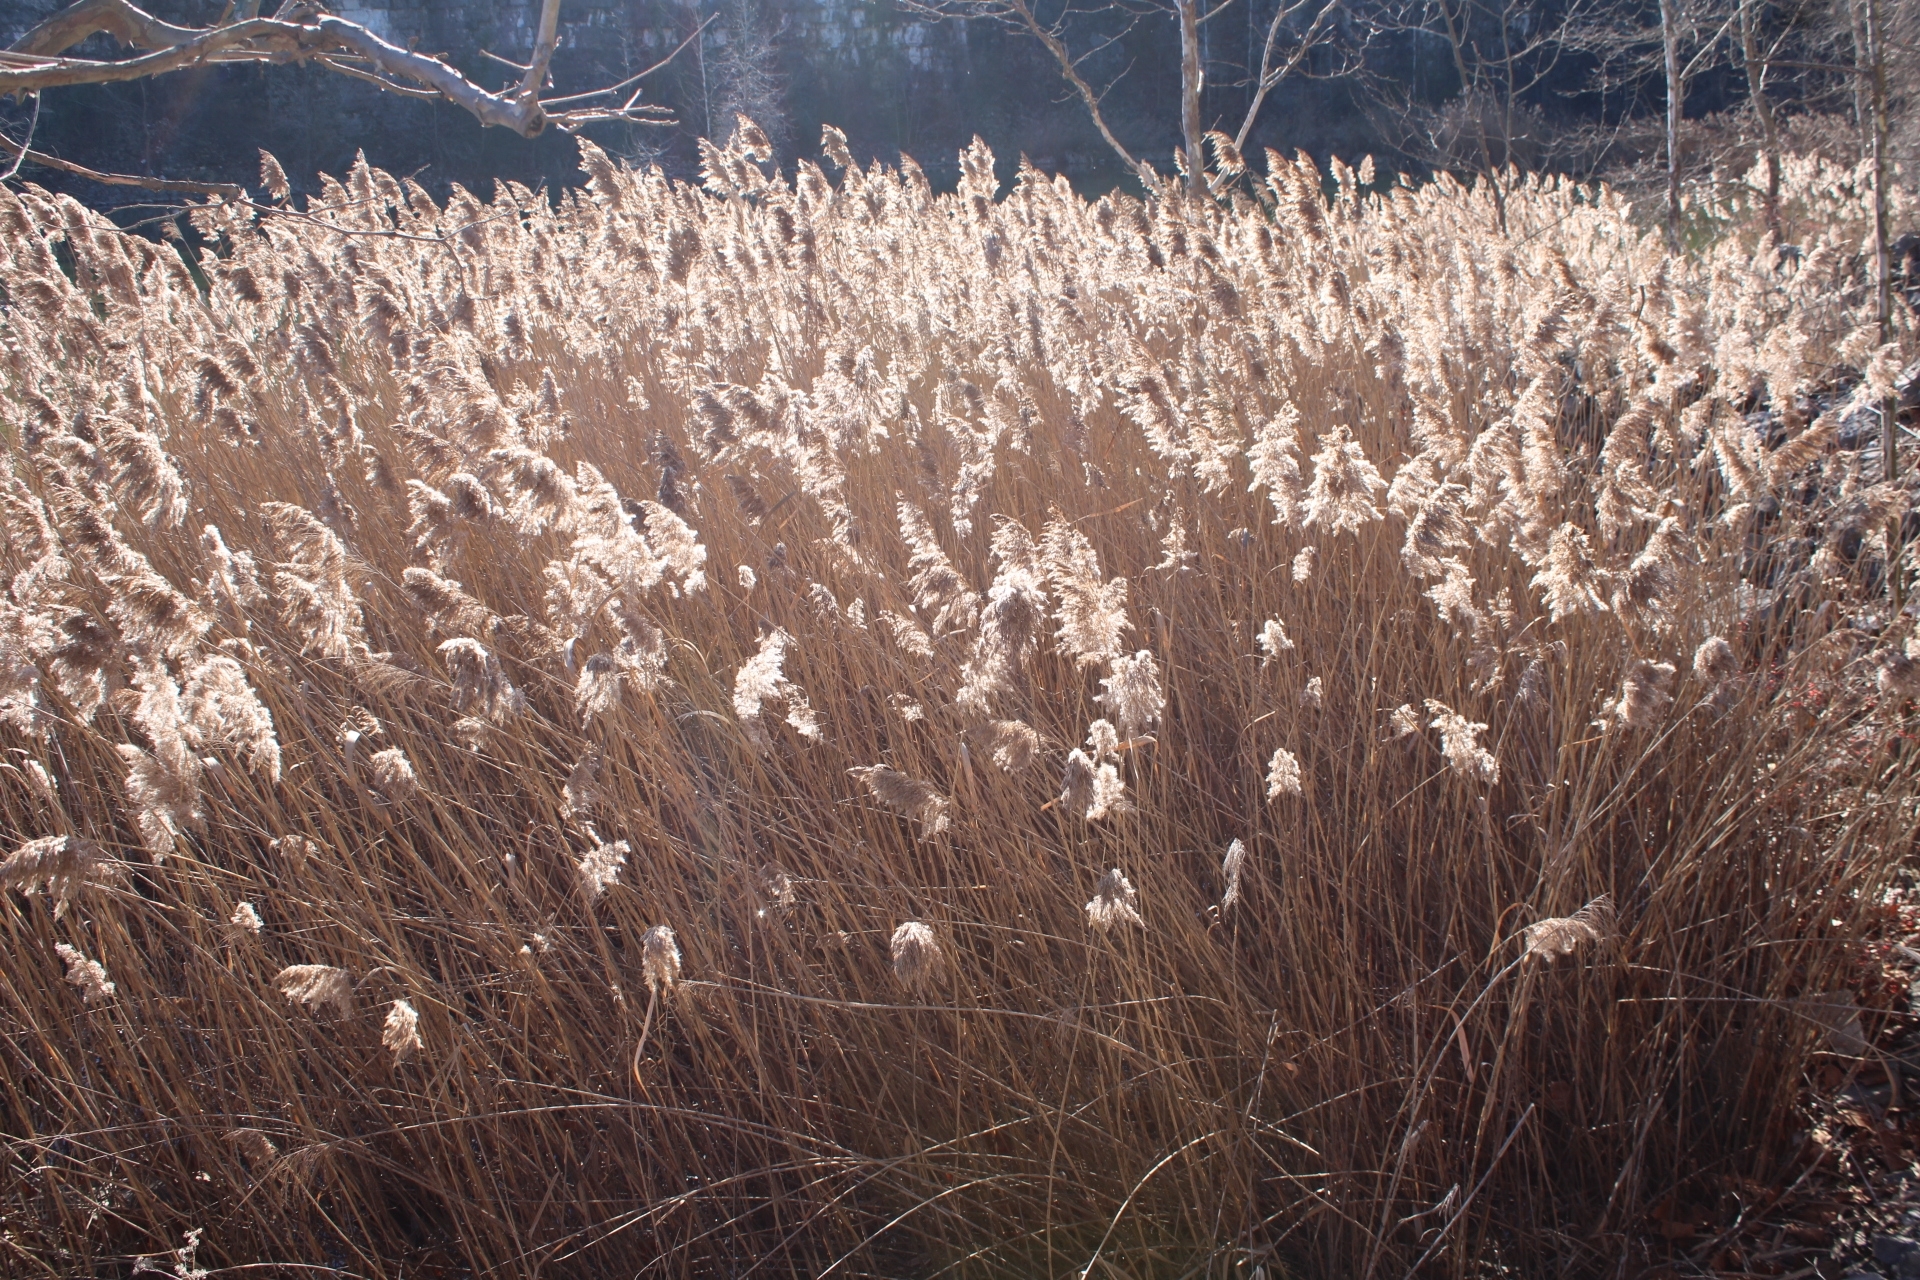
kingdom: Plantae
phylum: Tracheophyta
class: Liliopsida
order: Poales
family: Poaceae
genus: Phragmites
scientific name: Phragmites australis
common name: Common reed
